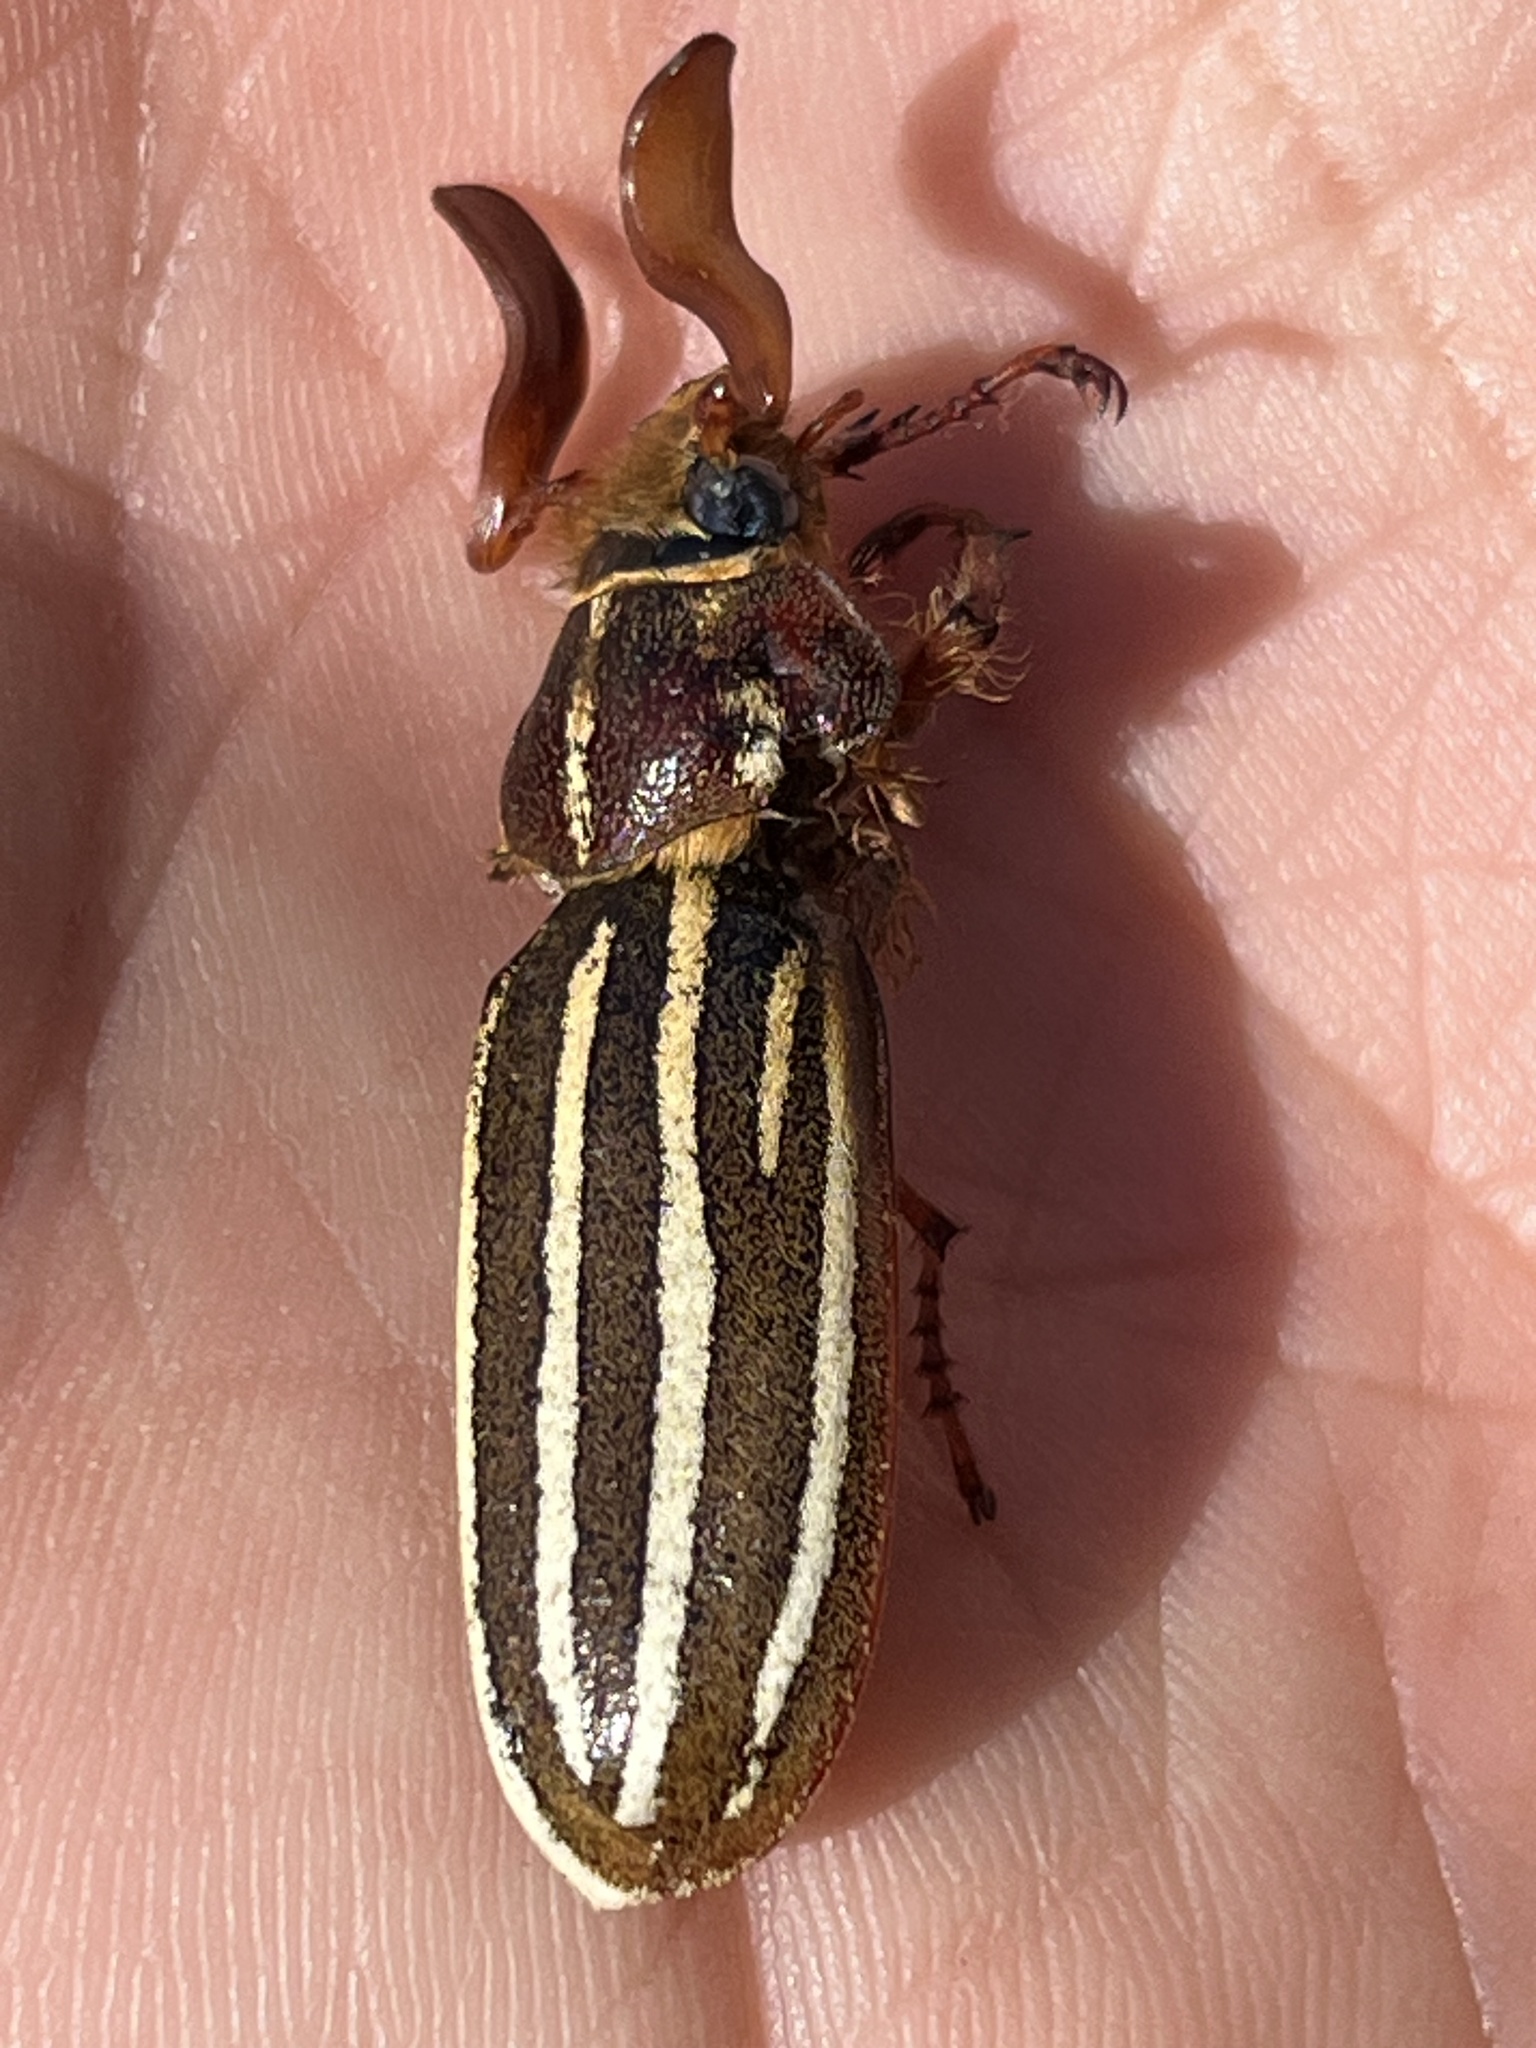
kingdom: Animalia
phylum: Arthropoda
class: Insecta
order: Coleoptera
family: Scarabaeidae
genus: Polyphylla
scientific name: Polyphylla crinita
